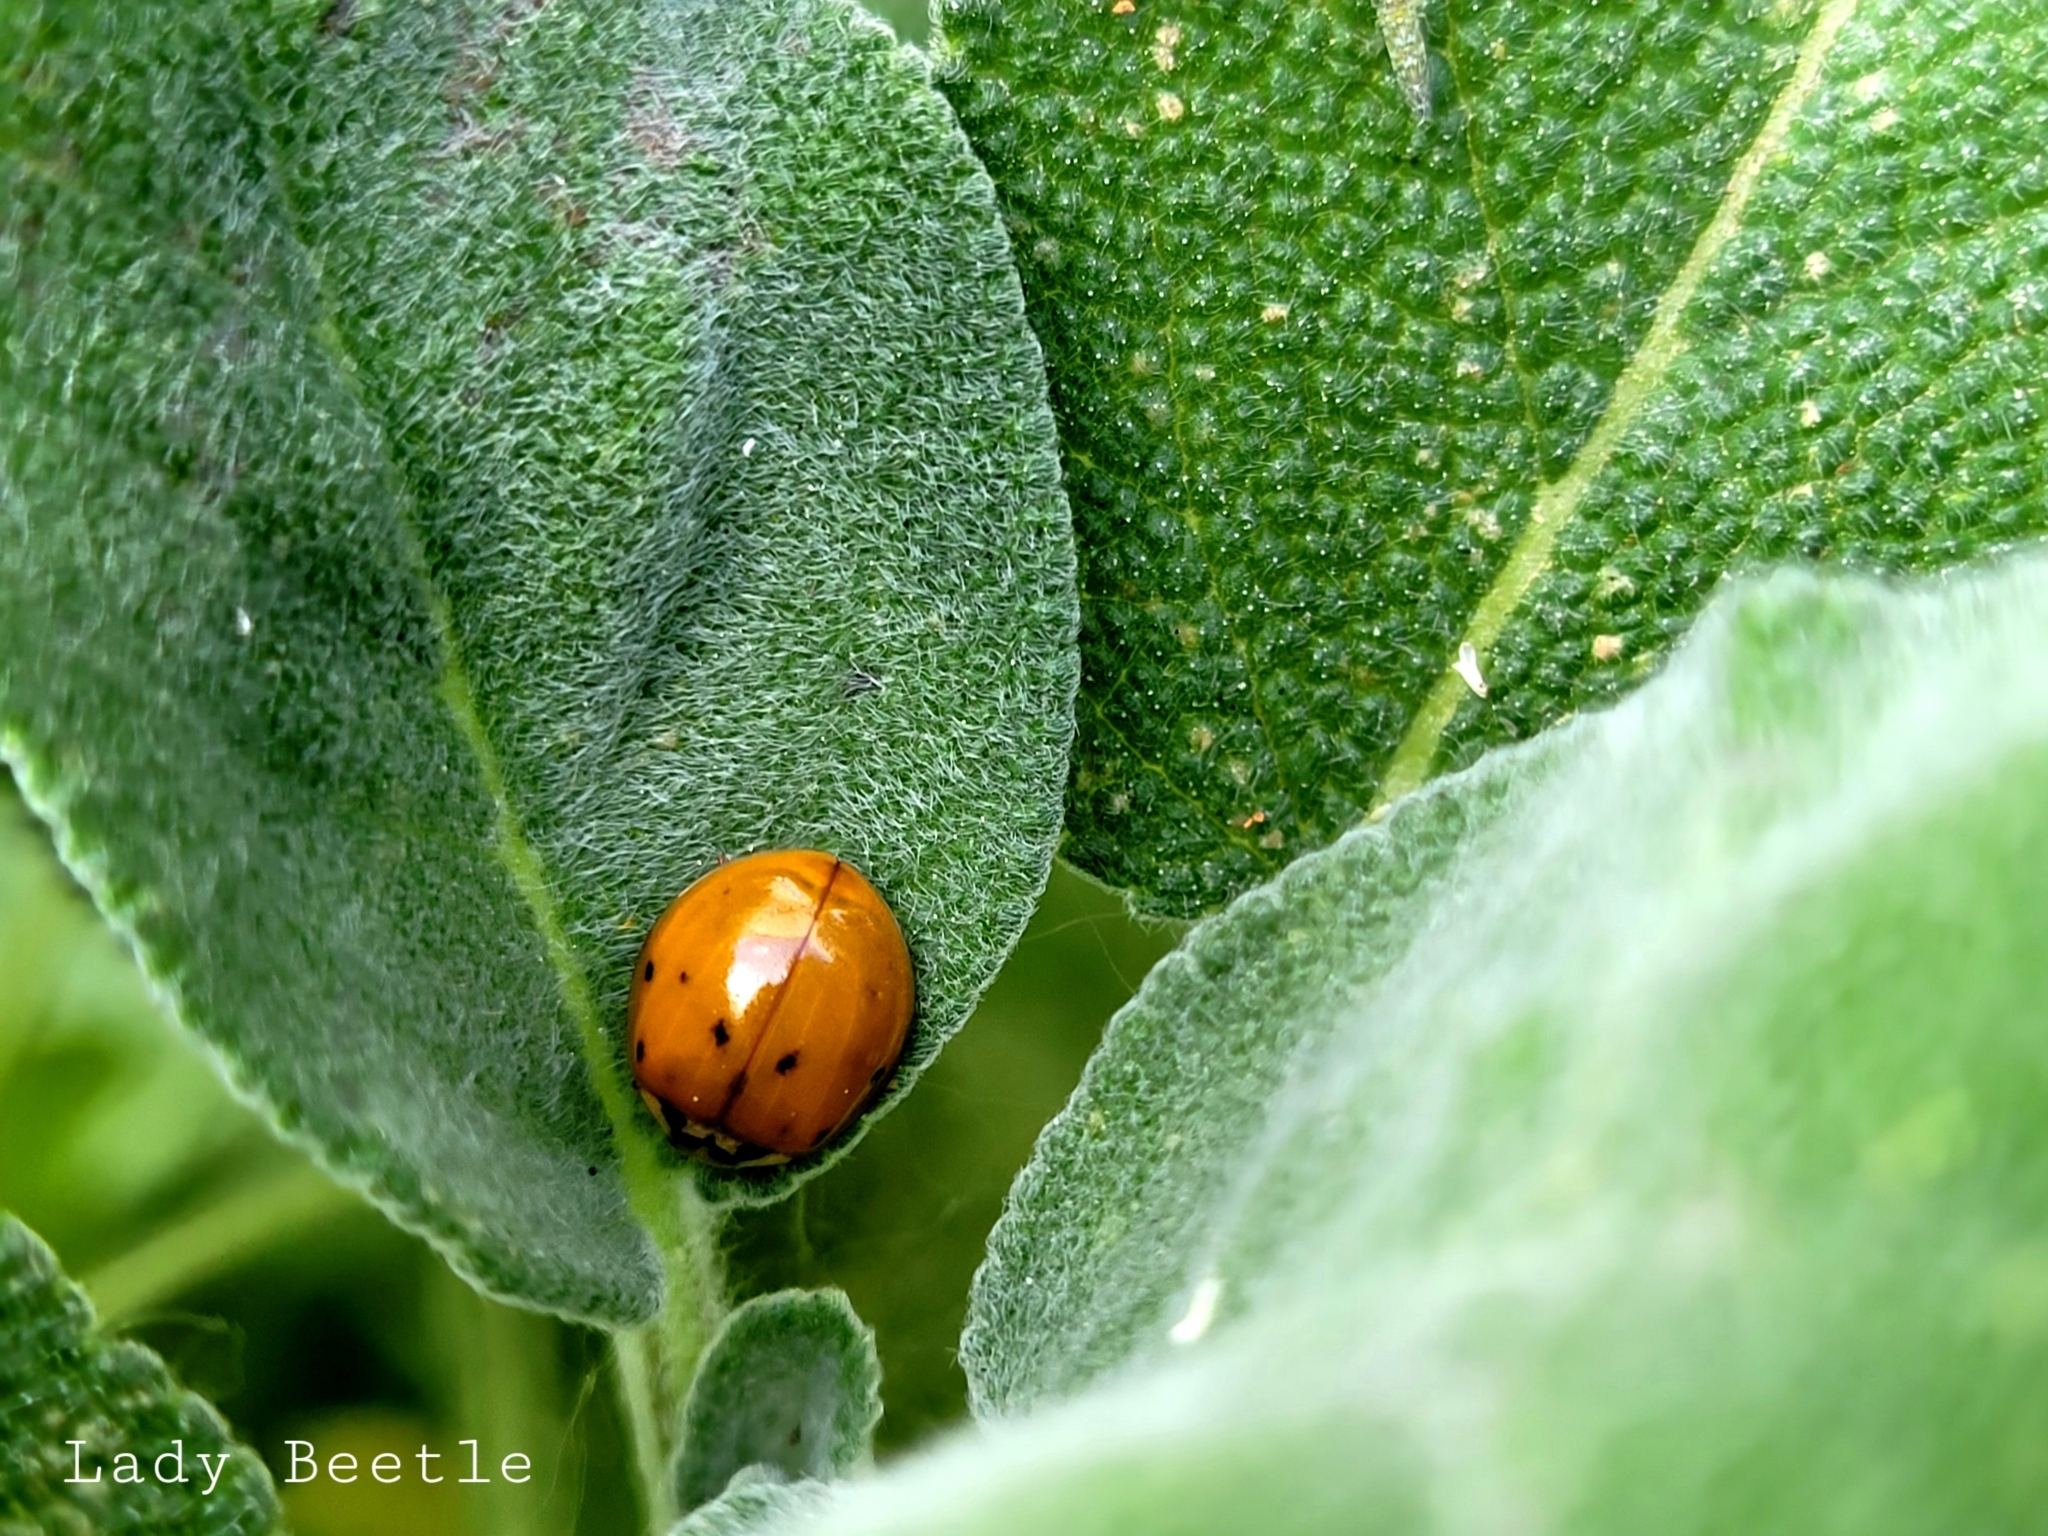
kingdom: Animalia
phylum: Arthropoda
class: Insecta
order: Coleoptera
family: Coccinellidae
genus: Harmonia
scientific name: Harmonia axyridis
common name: Harlequin ladybird
